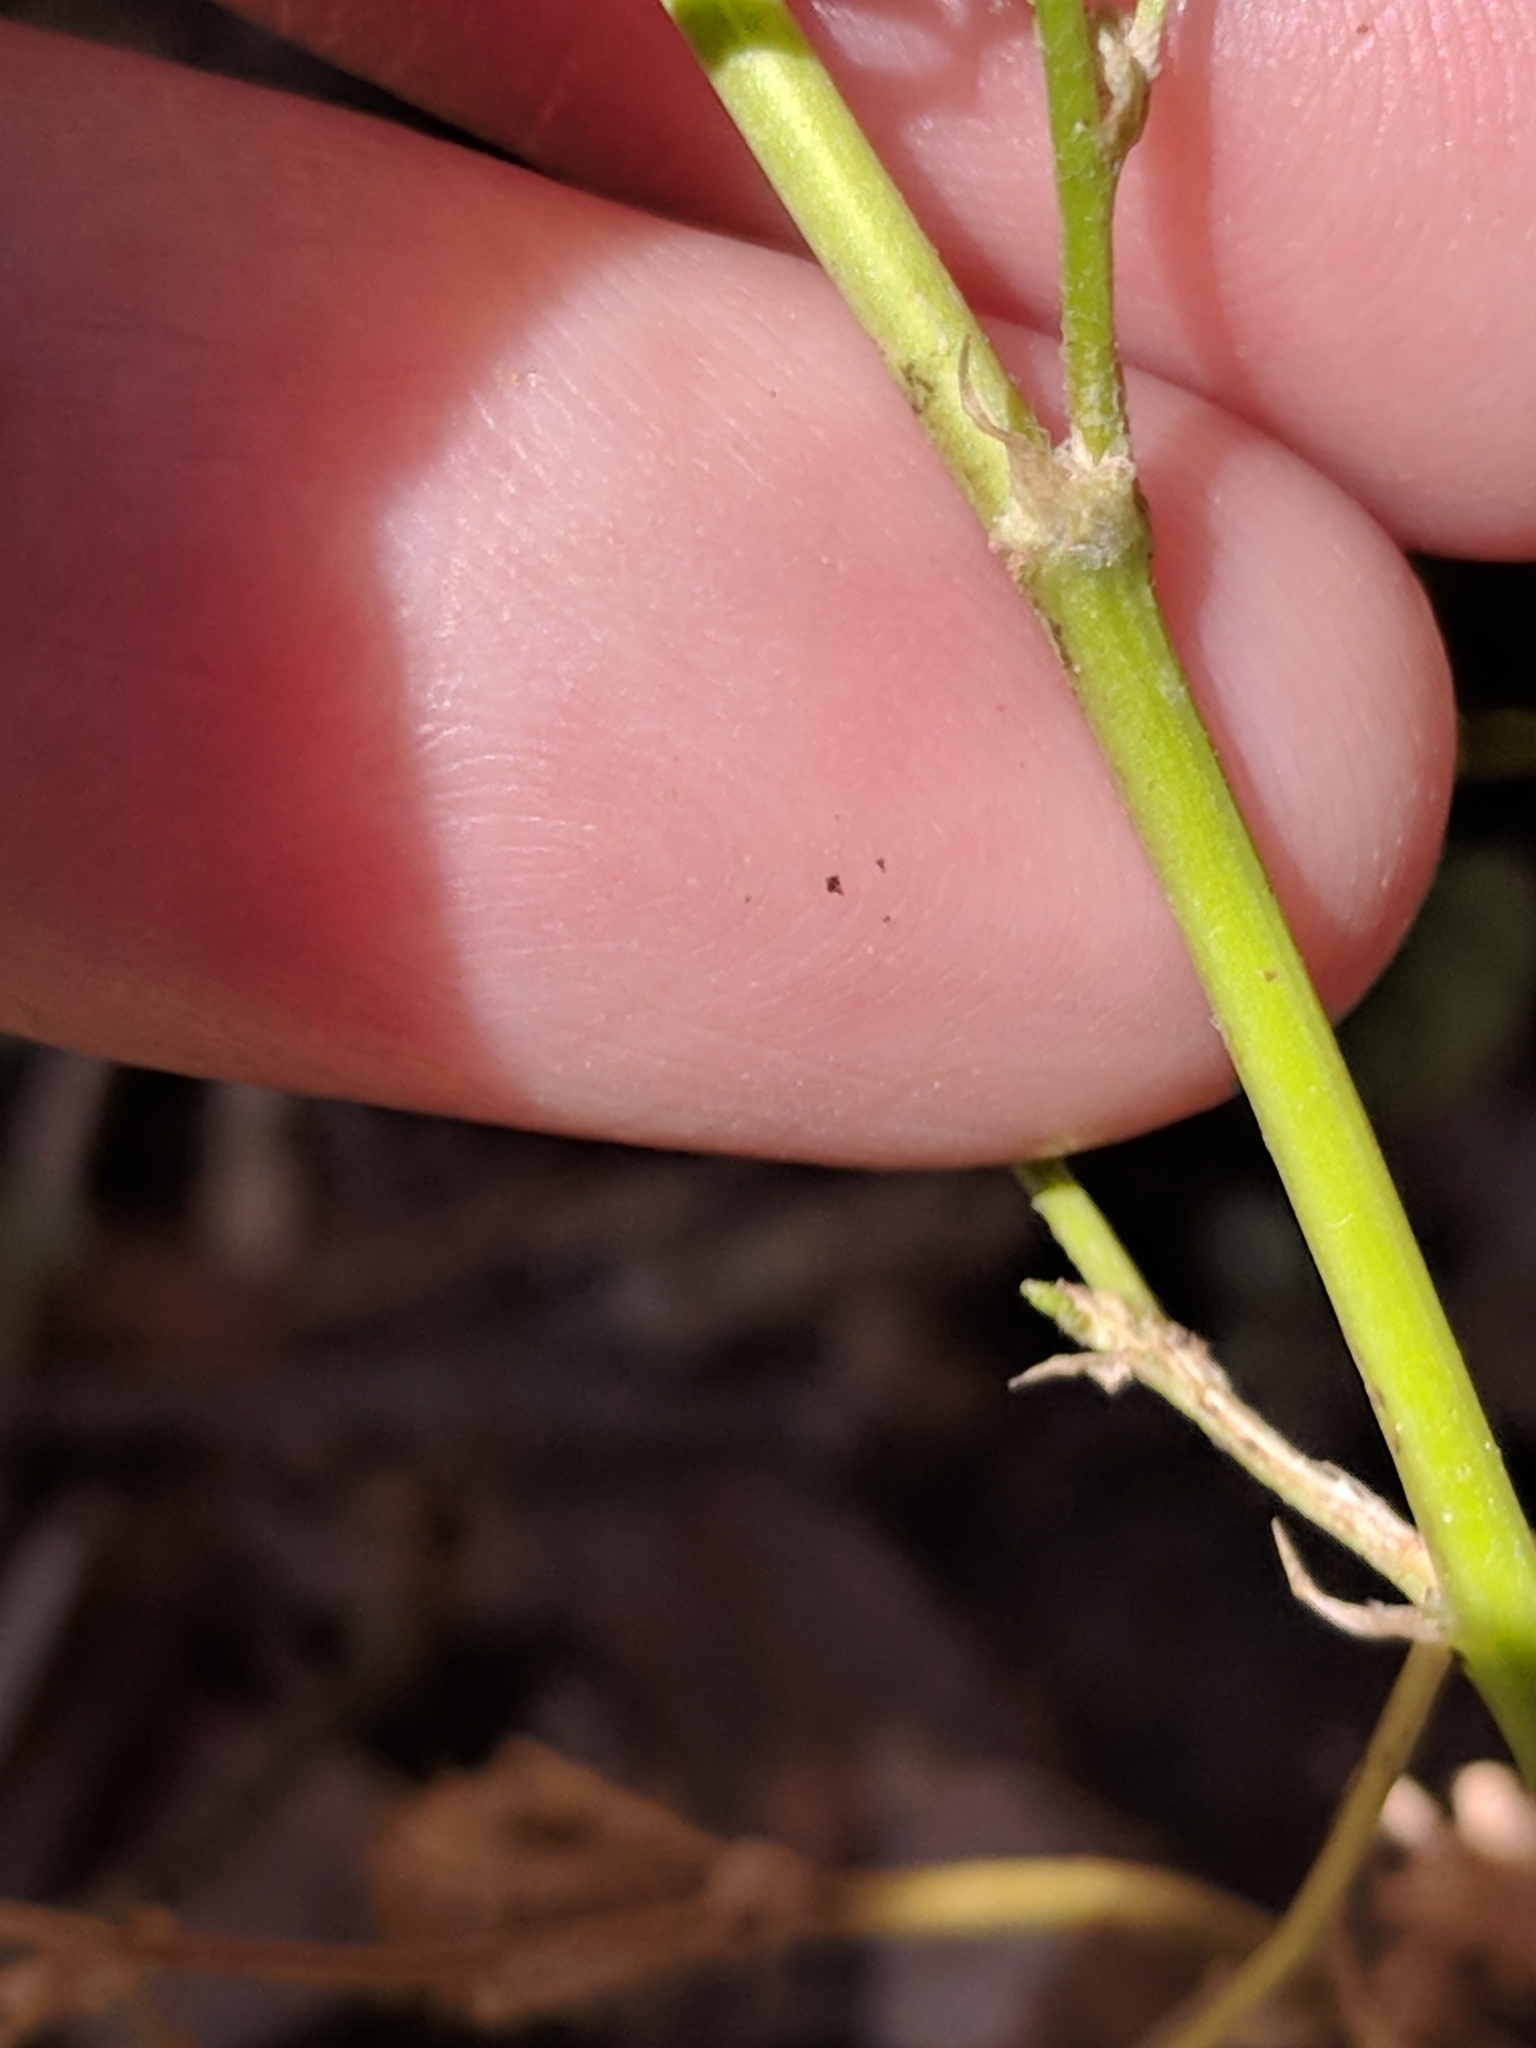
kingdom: Plantae
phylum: Tracheophyta
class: Magnoliopsida
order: Fabales
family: Fabaceae
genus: Melilotus
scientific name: Melilotus indicus
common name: Small melilot
